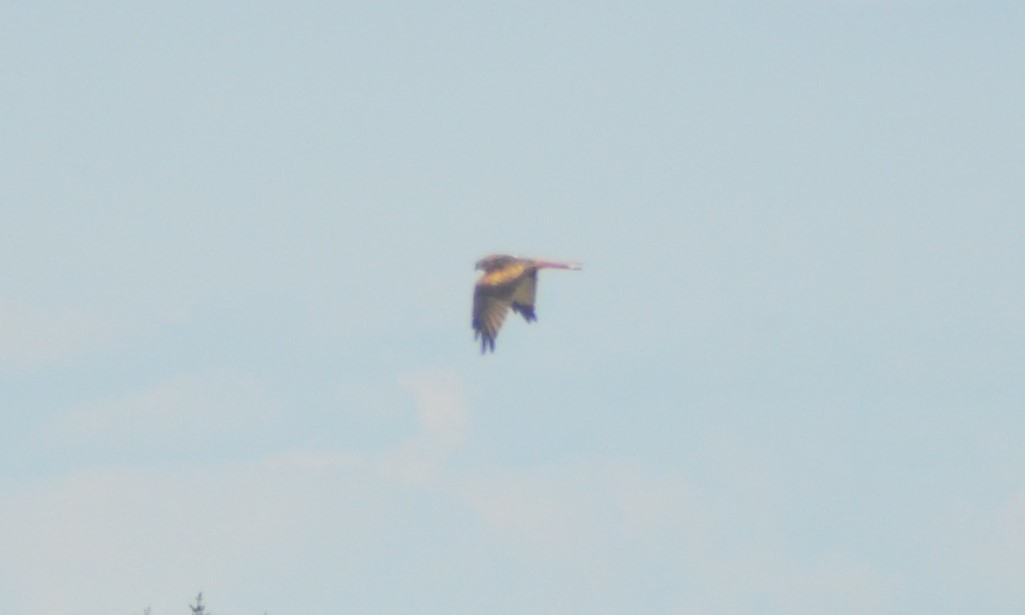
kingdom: Animalia
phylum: Chordata
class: Aves
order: Accipitriformes
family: Accipitridae
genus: Milvus
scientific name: Milvus milvus
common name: Red kite
